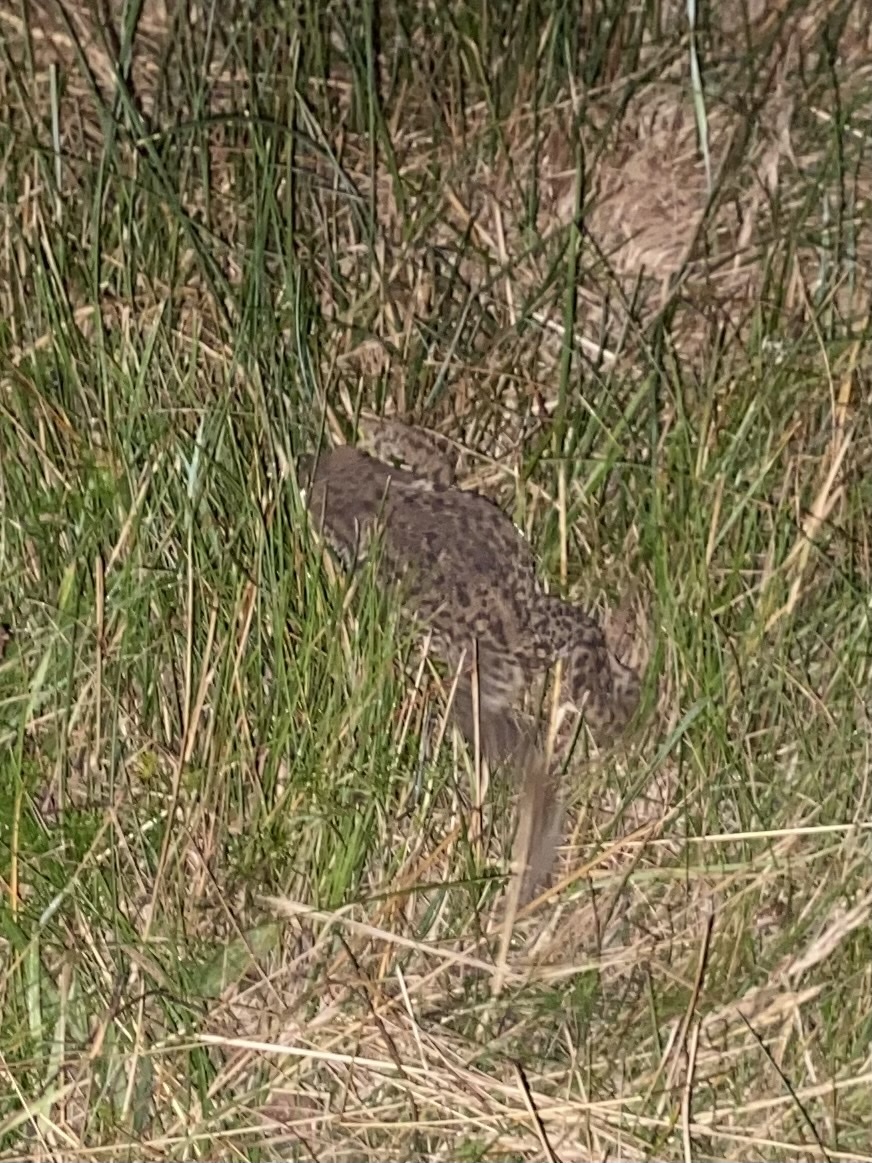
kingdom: Animalia
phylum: Chordata
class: Amphibia
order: Anura
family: Bufonidae
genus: Bufo
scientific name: Bufo bufo
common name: Common toad
